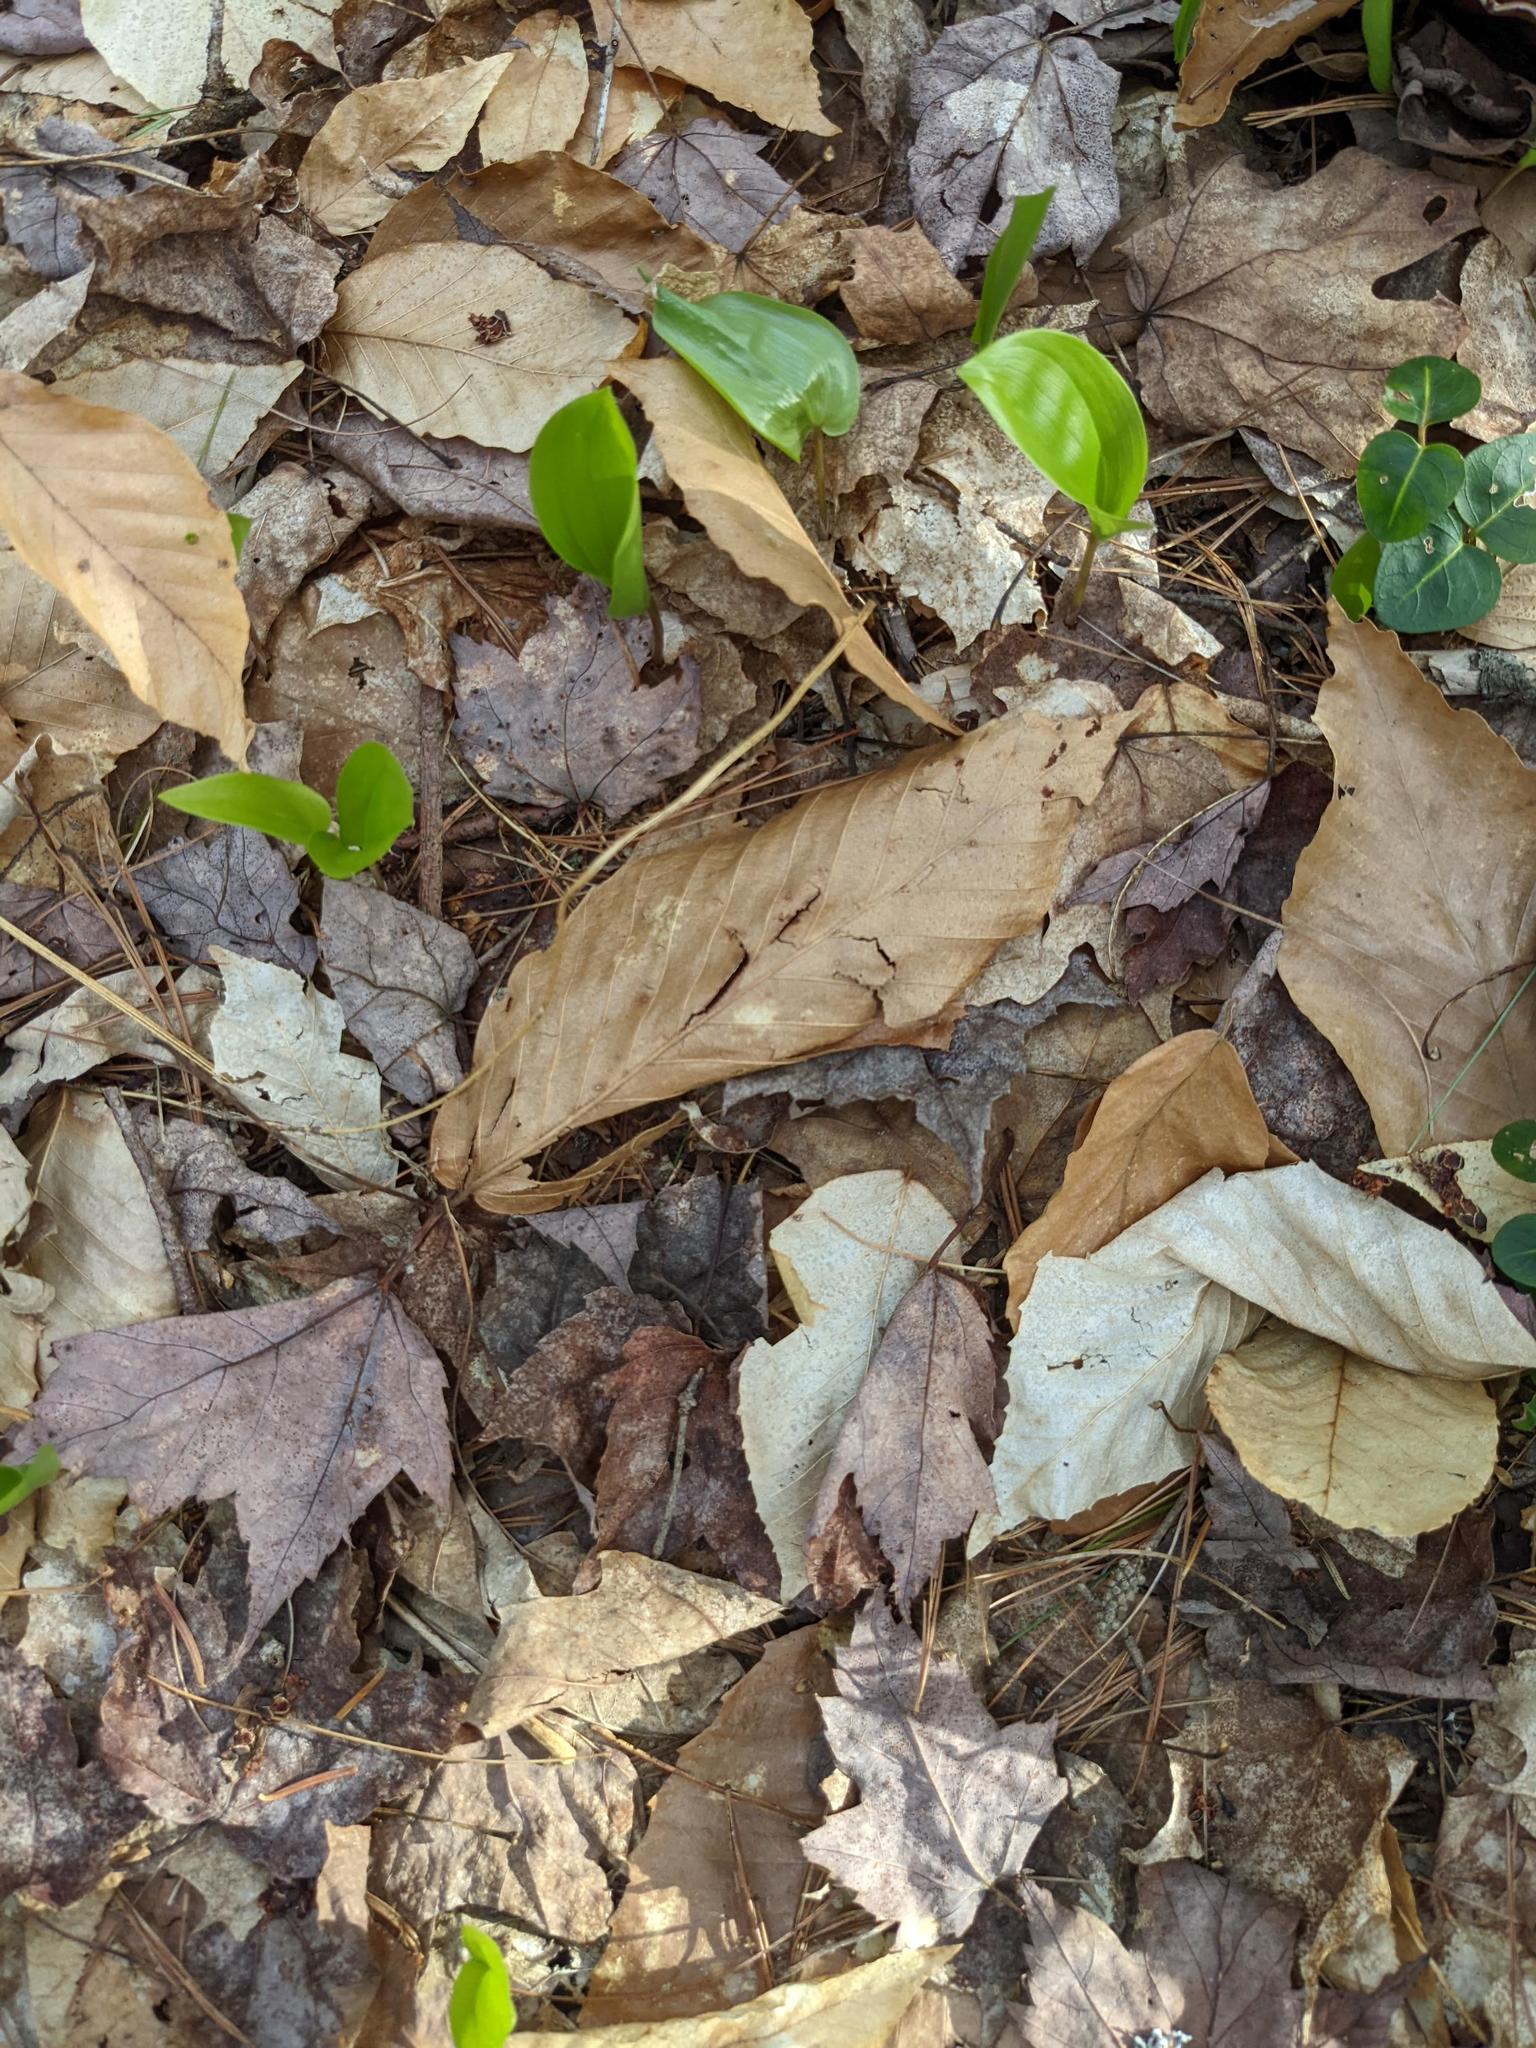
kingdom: Plantae
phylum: Tracheophyta
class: Liliopsida
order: Asparagales
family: Asparagaceae
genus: Maianthemum
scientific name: Maianthemum canadense
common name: False lily-of-the-valley
